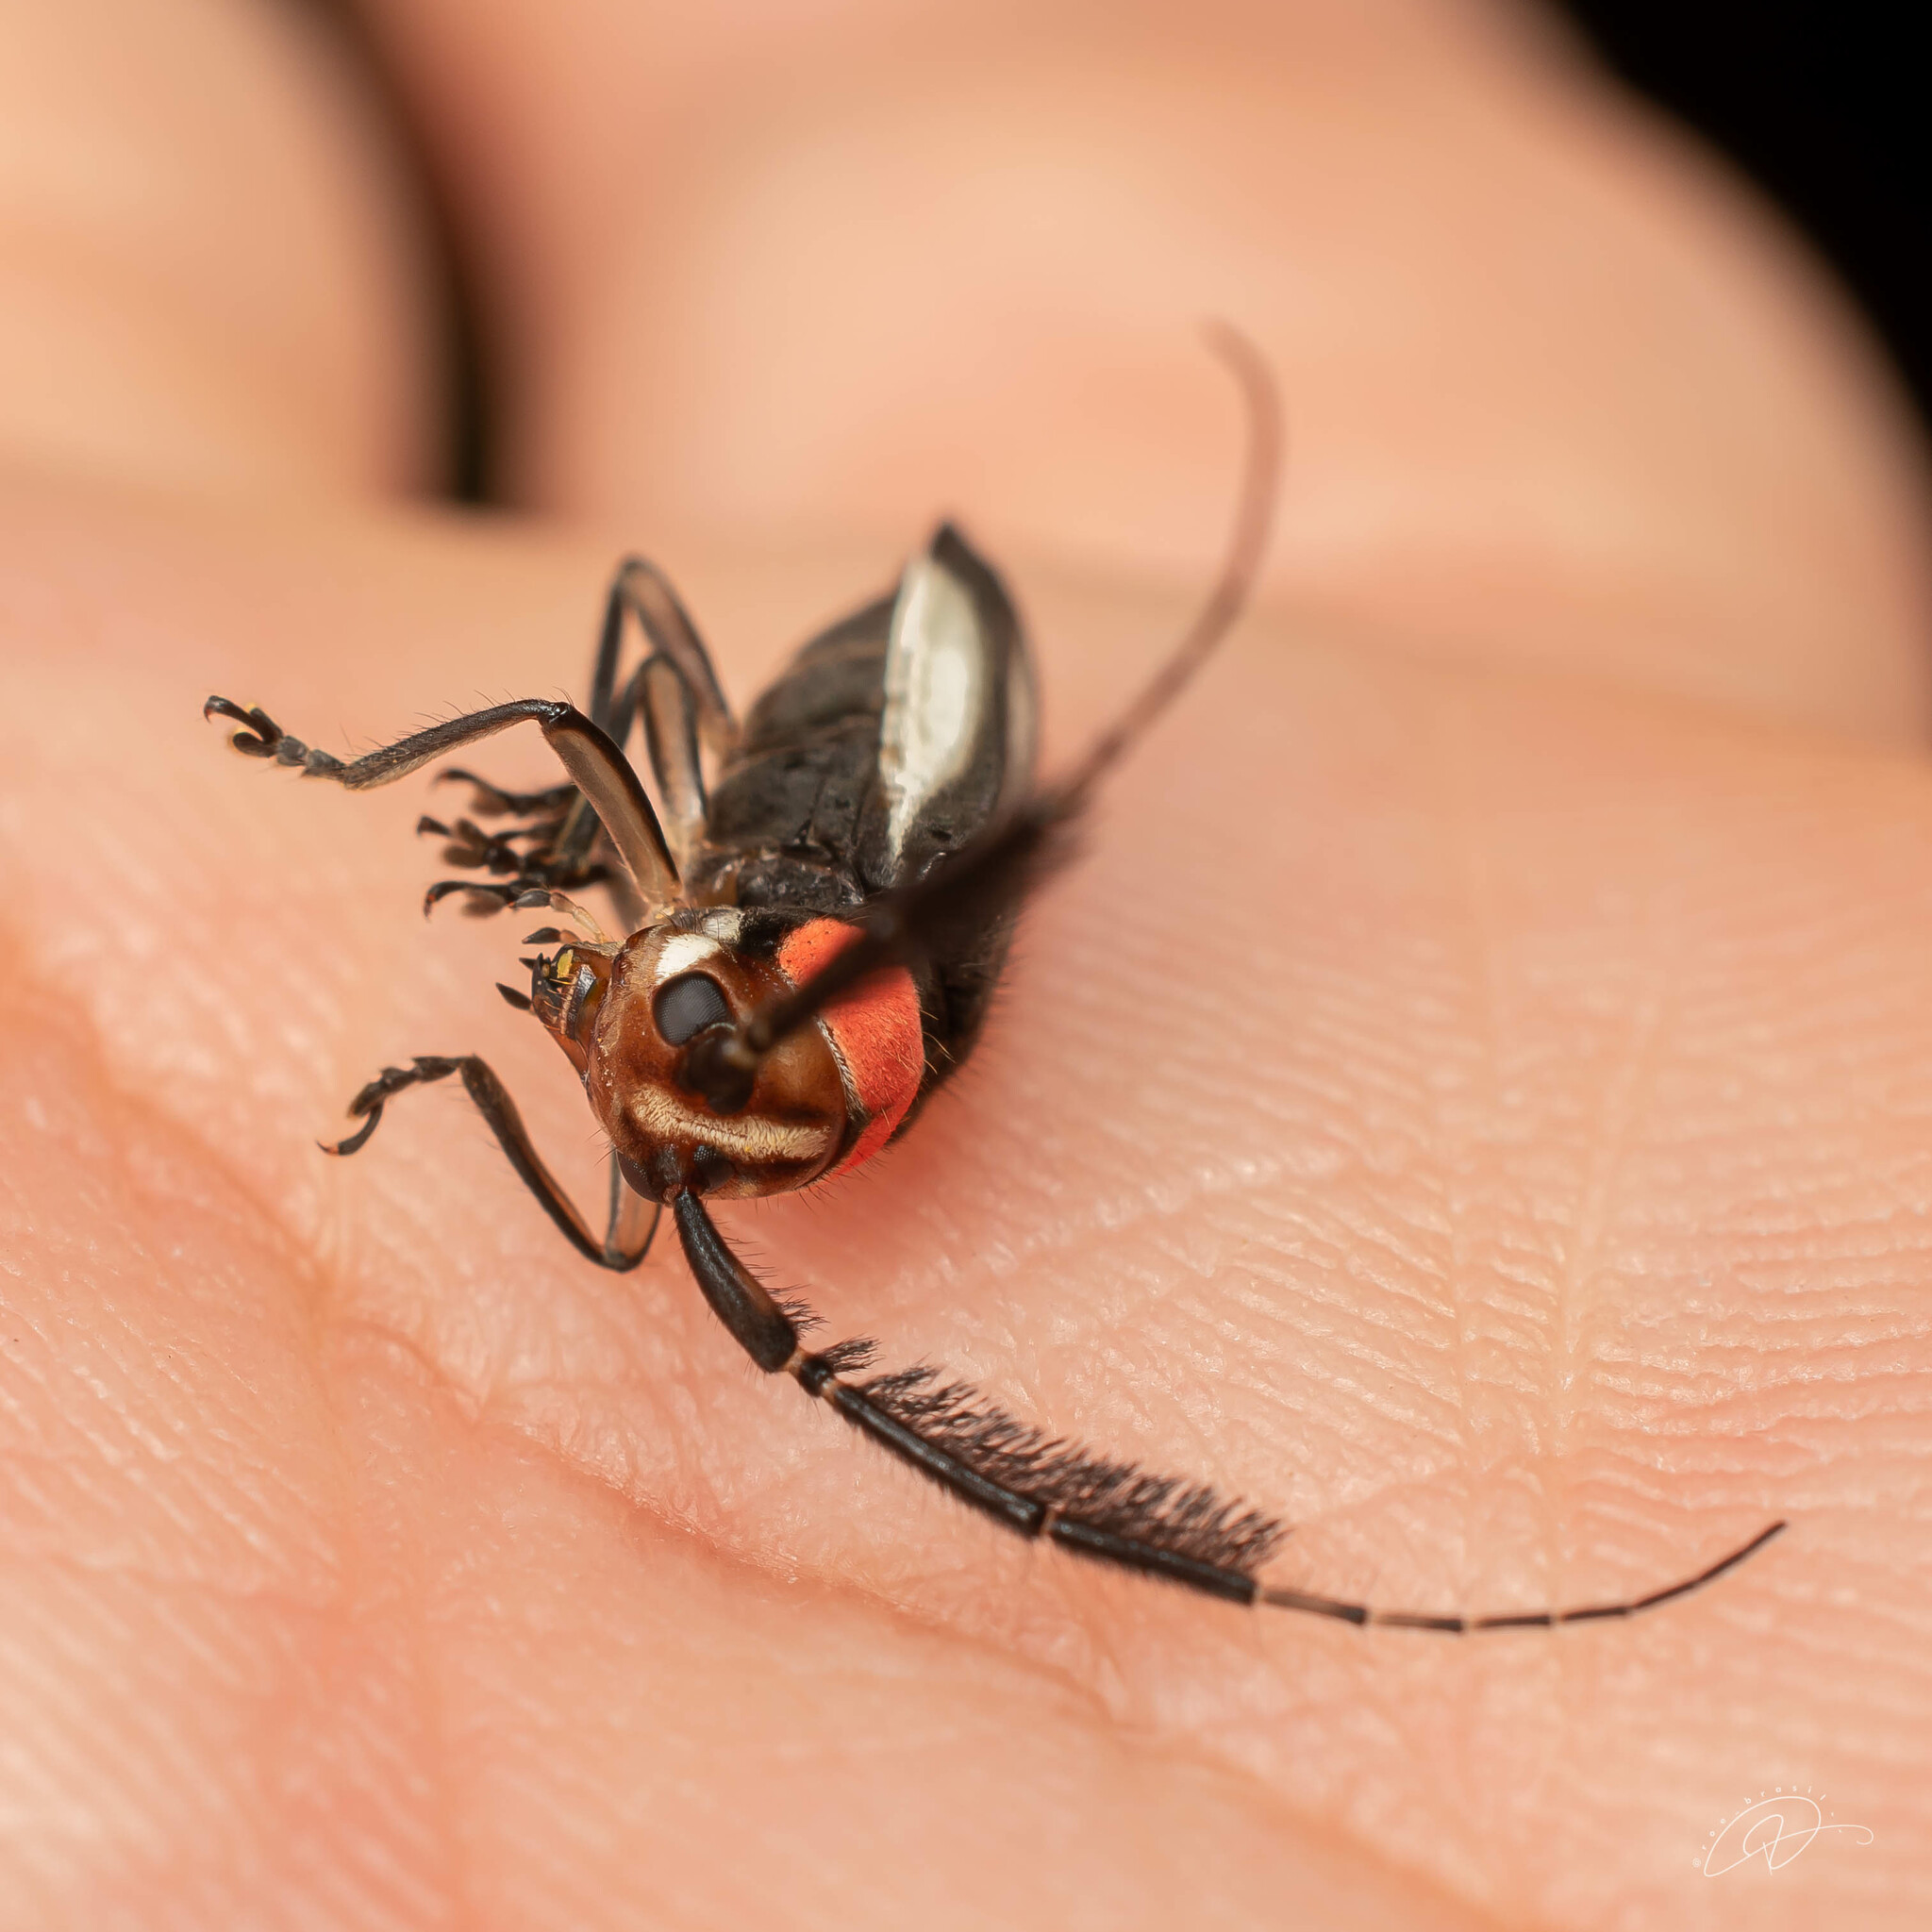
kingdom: Animalia
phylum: Arthropoda
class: Insecta
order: Coleoptera
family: Cerambycidae
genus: Hemilophus
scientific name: Hemilophus dimidiaticornis
